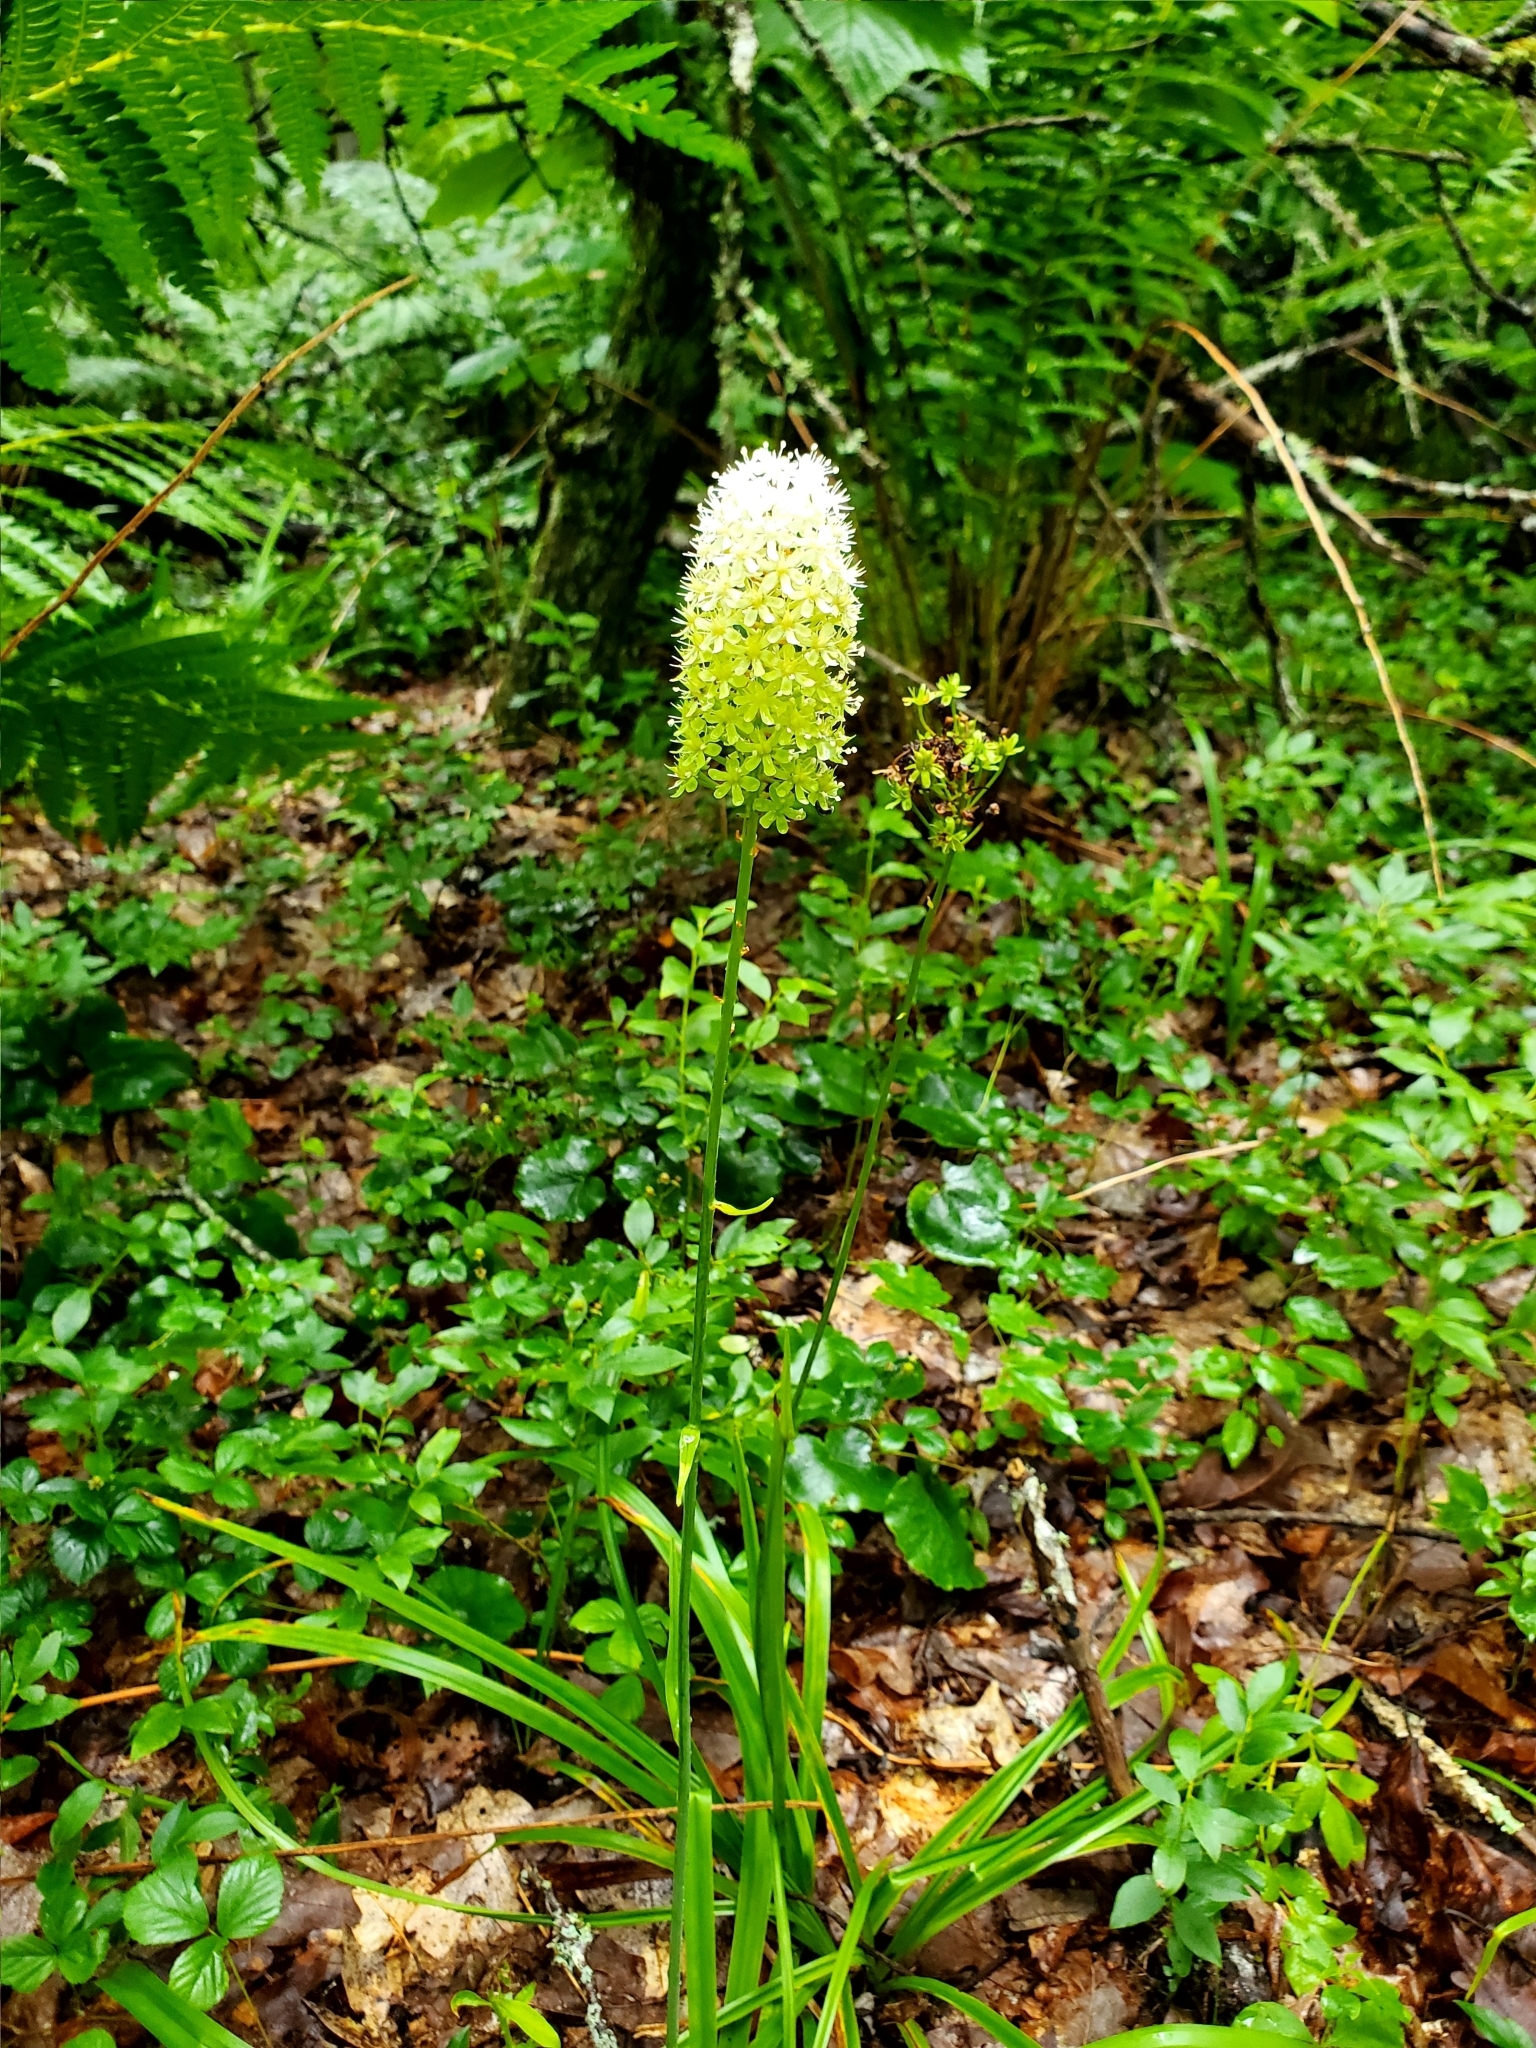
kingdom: Plantae
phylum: Tracheophyta
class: Liliopsida
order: Liliales
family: Melanthiaceae
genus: Amianthium
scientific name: Amianthium muscitoxicum
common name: Fly-poison
